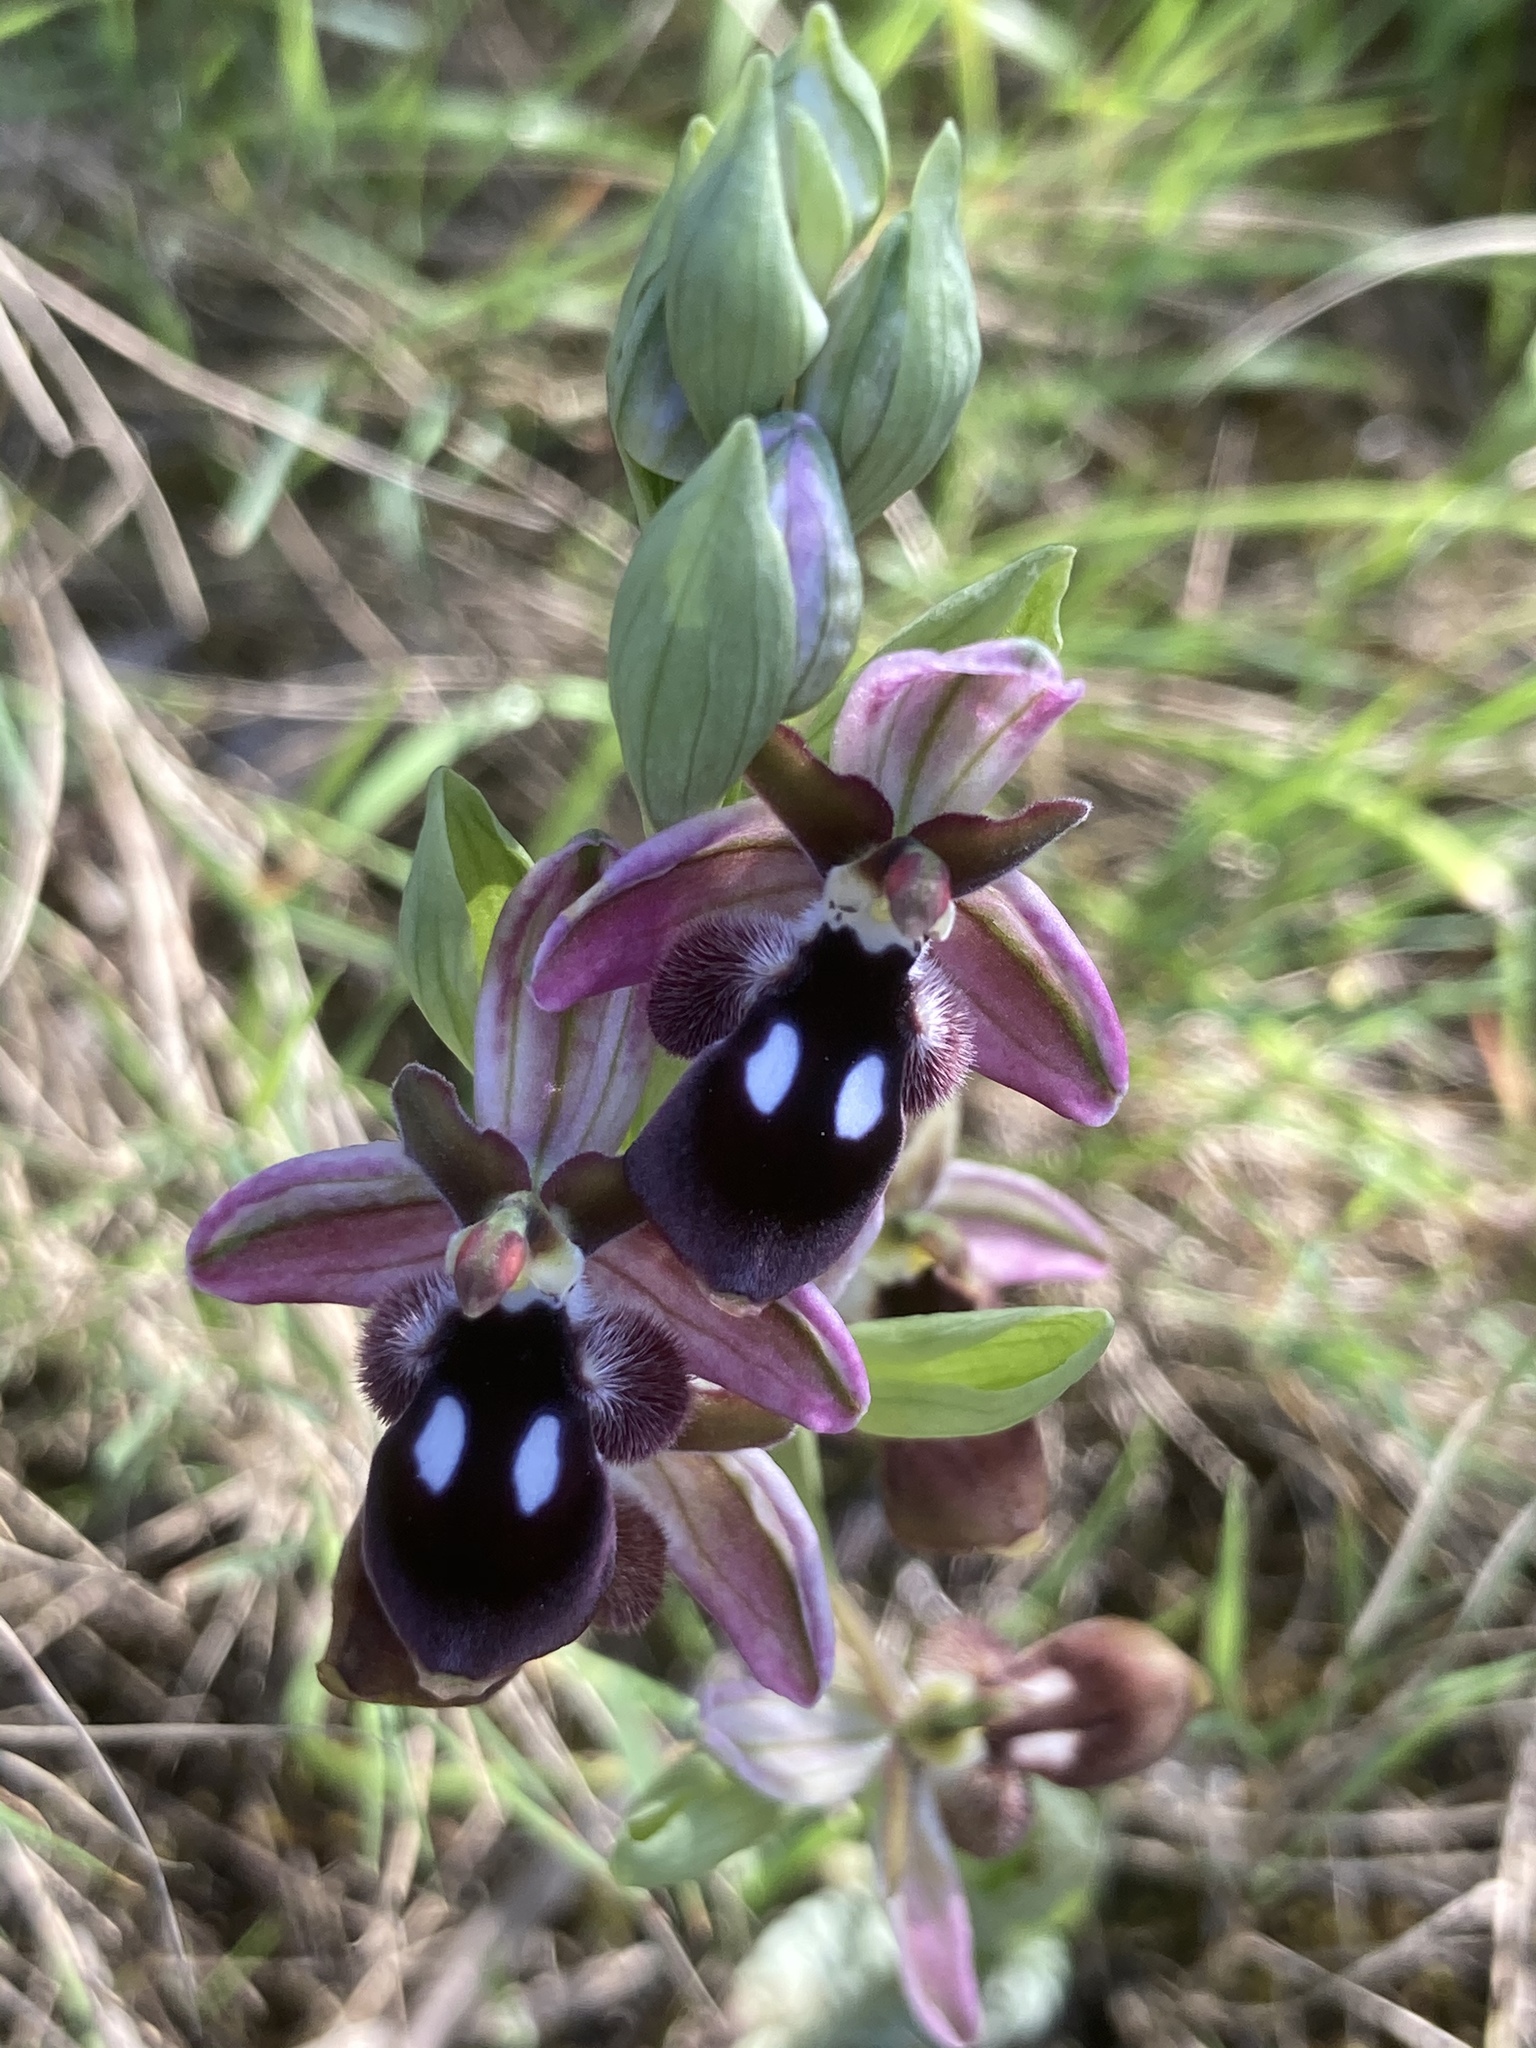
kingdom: Plantae
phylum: Tracheophyta
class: Liliopsida
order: Asparagales
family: Orchidaceae
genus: Ophrys
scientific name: Ophrys reinholdii
